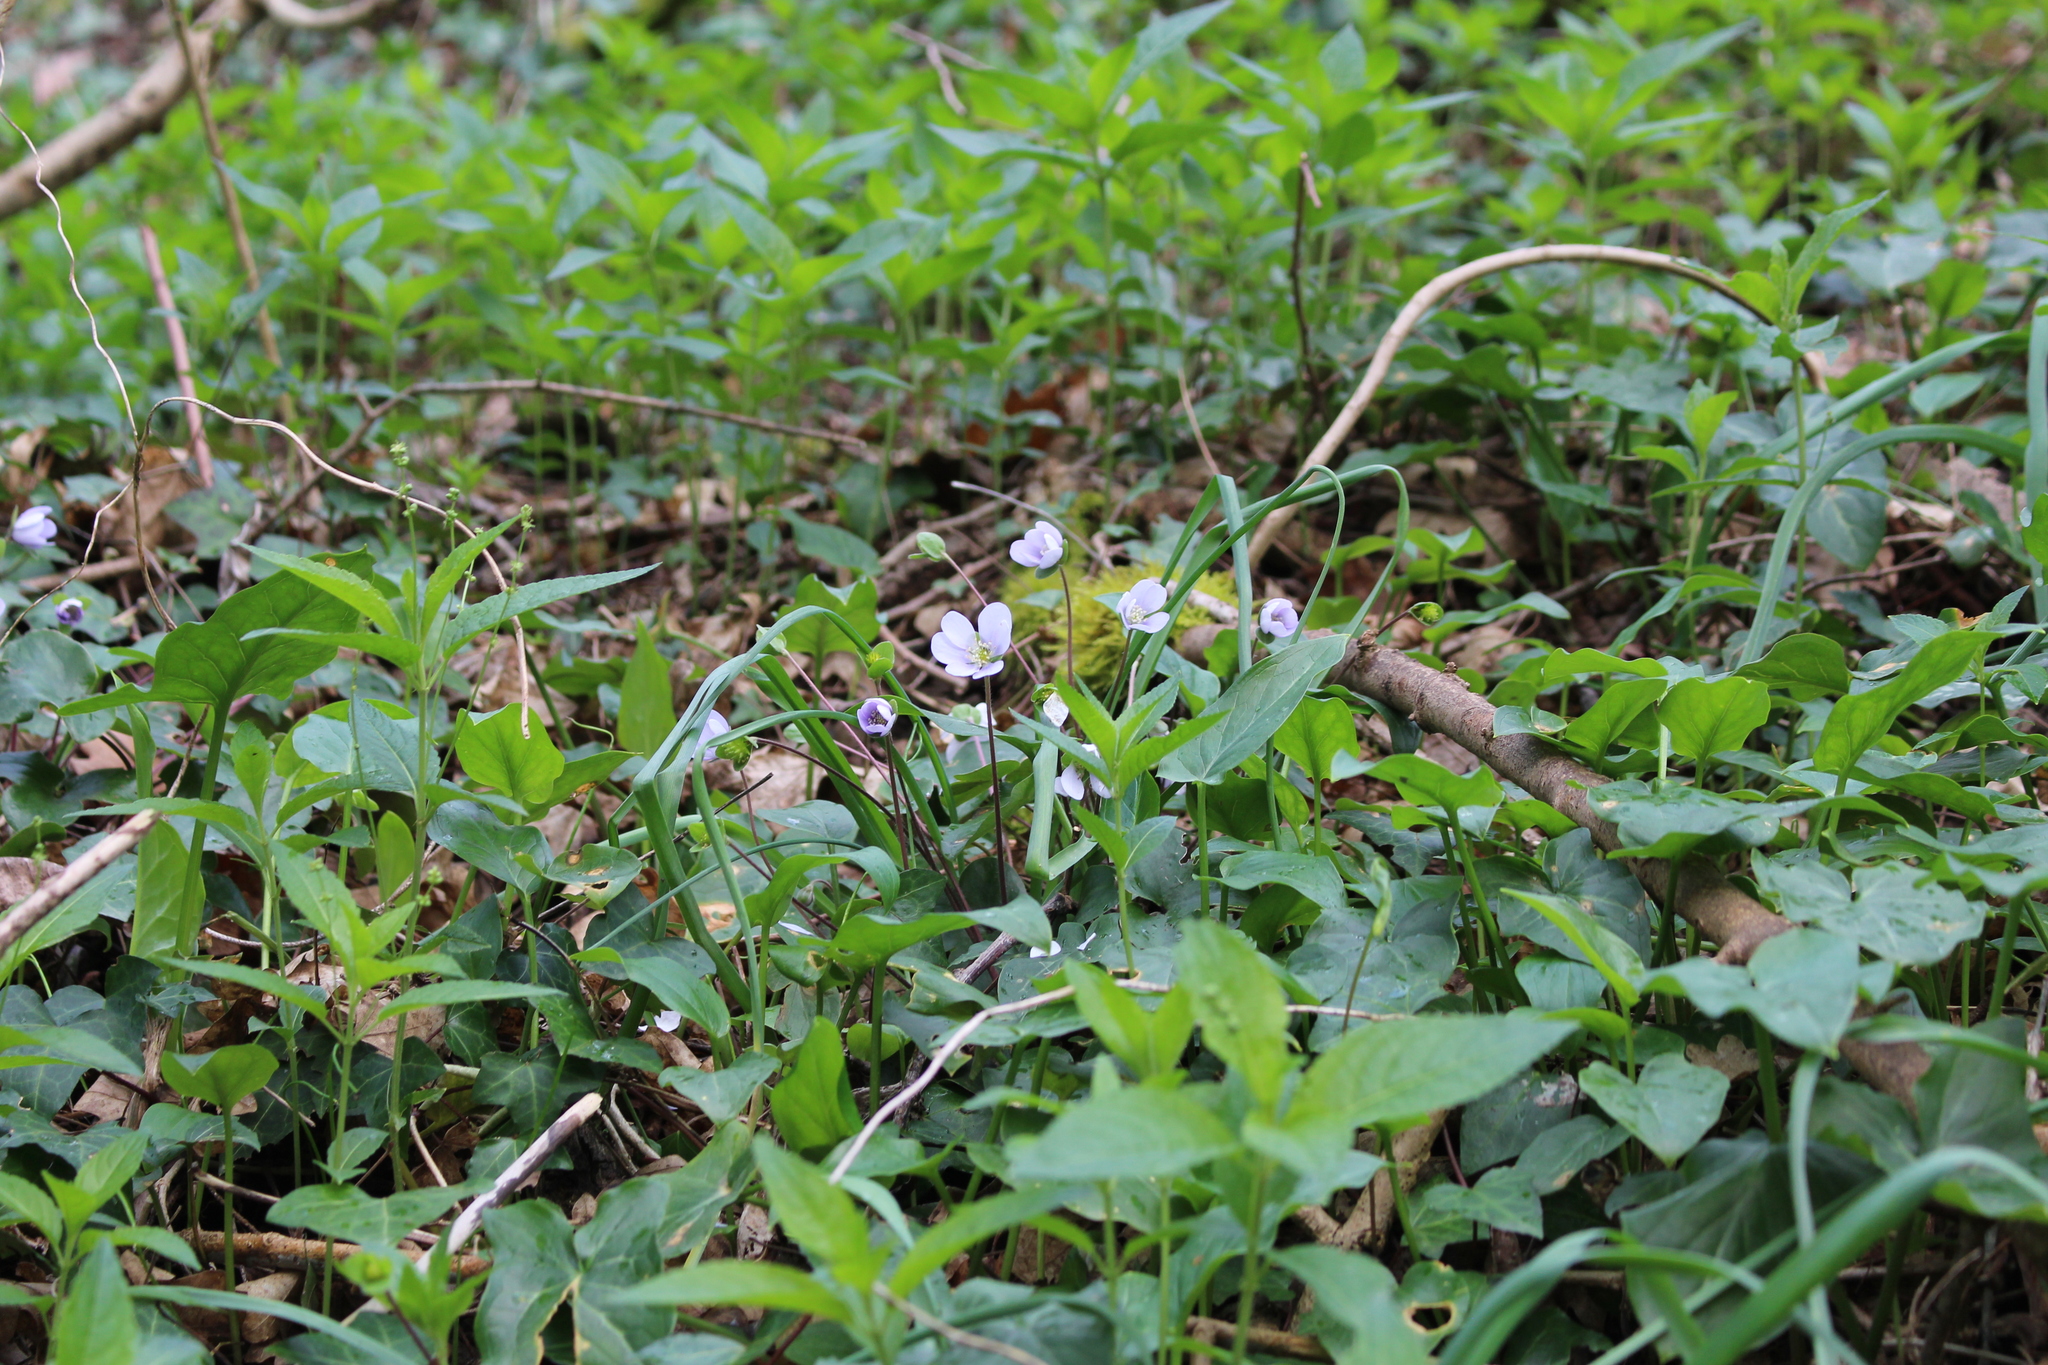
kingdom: Plantae
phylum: Tracheophyta
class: Magnoliopsida
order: Ranunculales
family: Ranunculaceae
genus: Hepatica
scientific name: Hepatica nobilis
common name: Liverleaf
